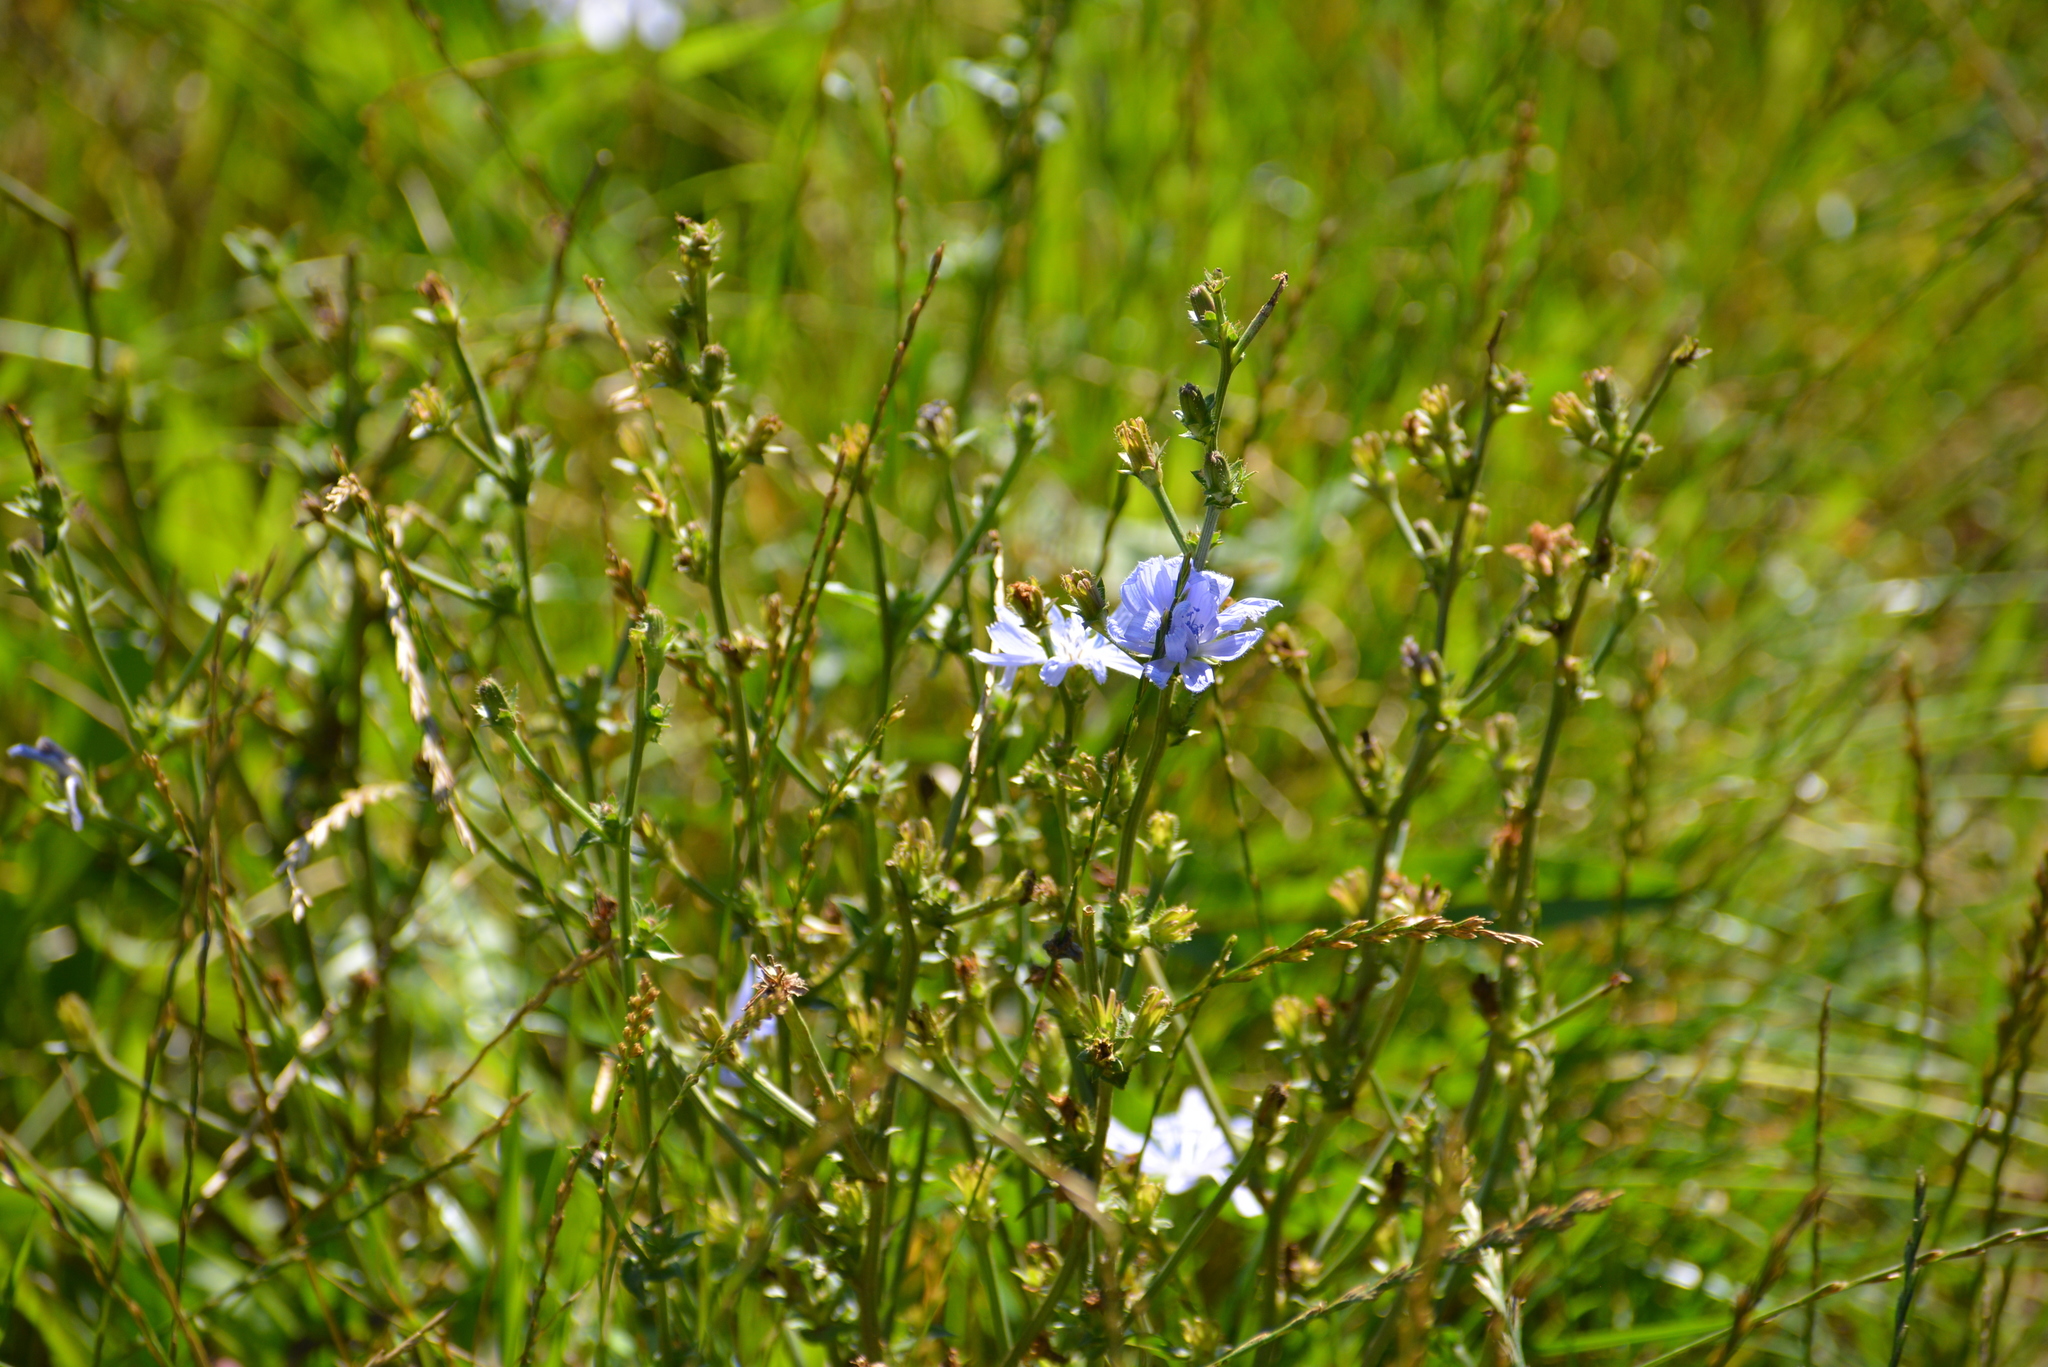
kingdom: Plantae
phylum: Tracheophyta
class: Magnoliopsida
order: Asterales
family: Asteraceae
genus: Cichorium
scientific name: Cichorium intybus
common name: Chicory
